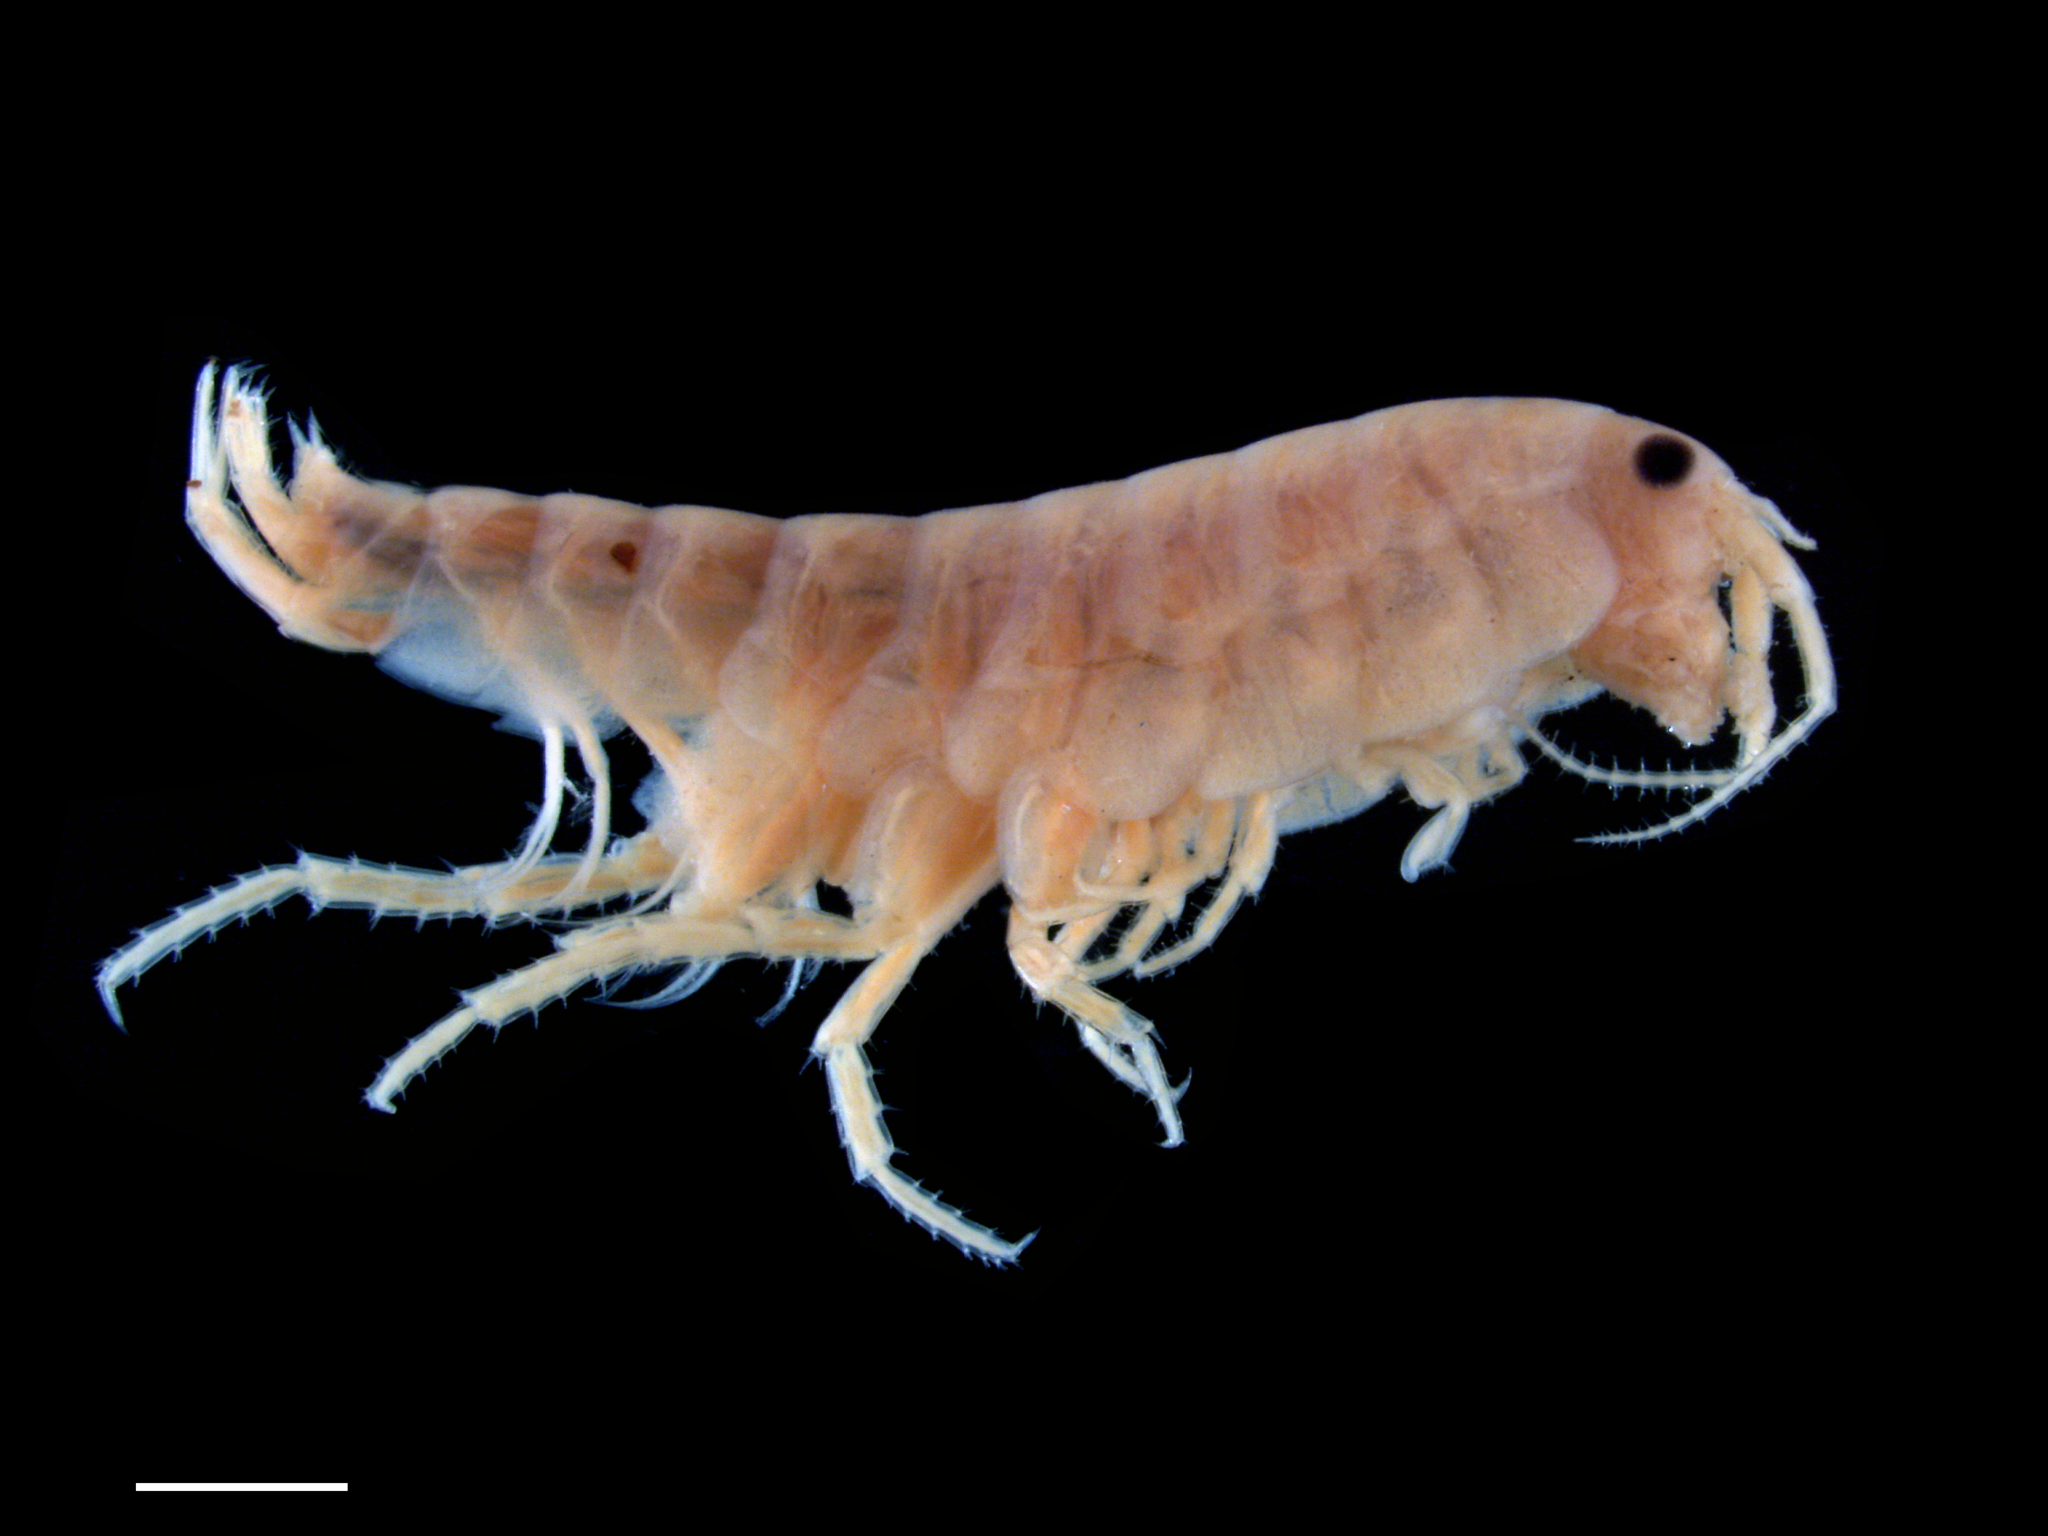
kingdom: Animalia
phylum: Arthropoda
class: Malacostraca
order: Amphipoda
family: Uhlorchestiidae
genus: Uhlorchestia
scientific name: Uhlorchestia uhleri
